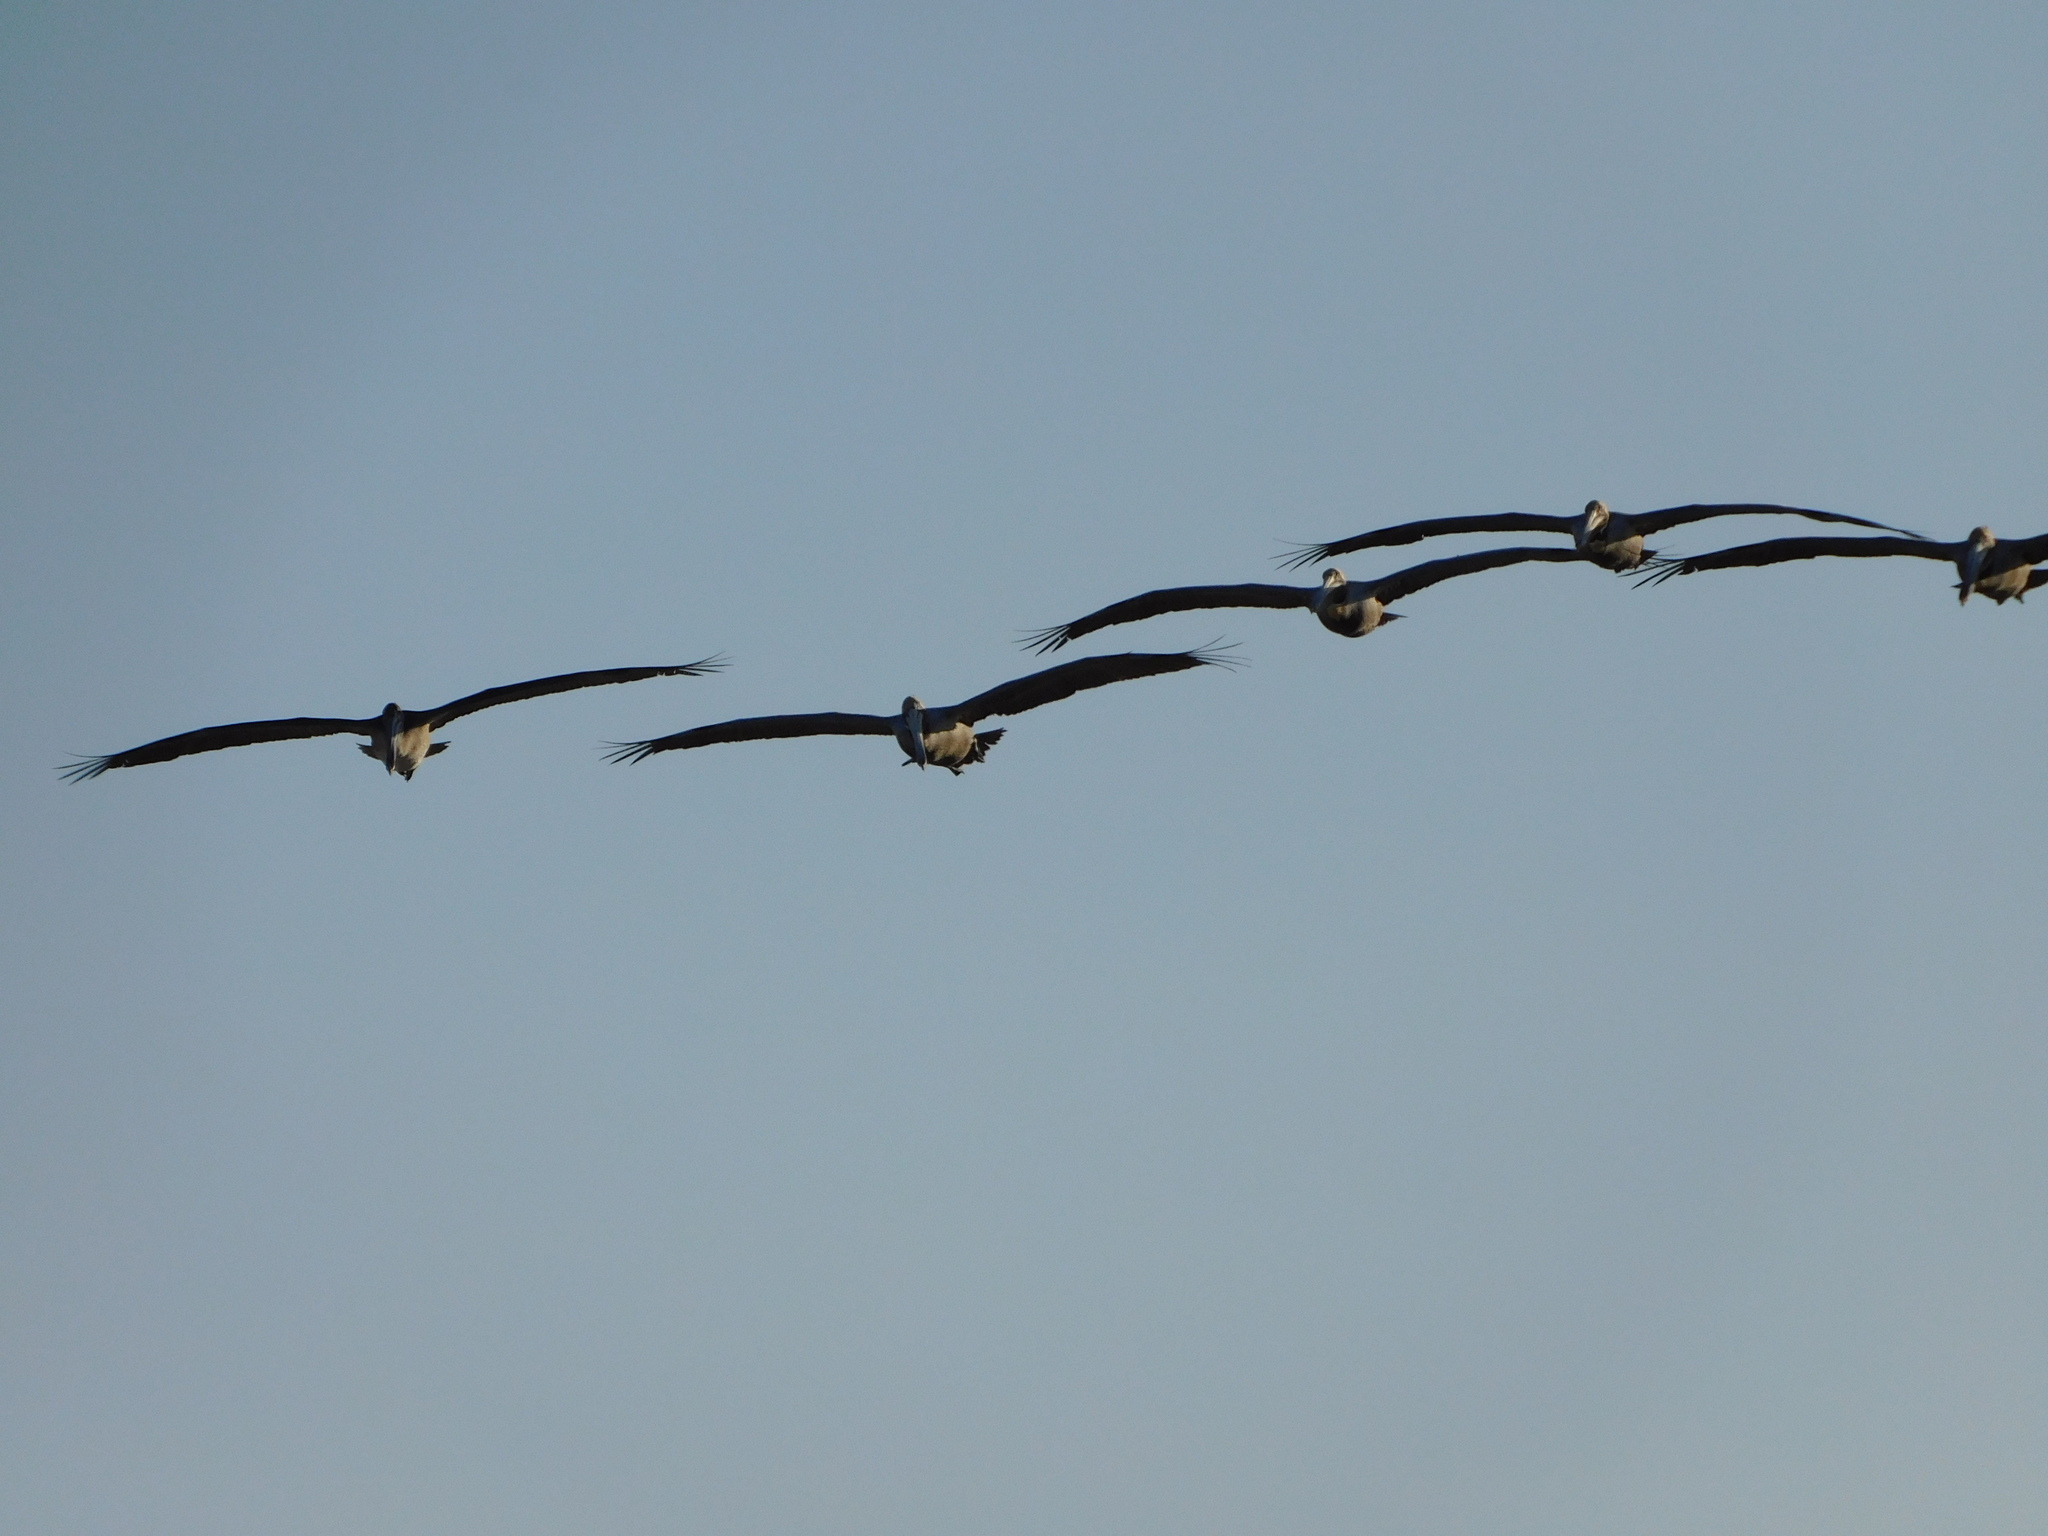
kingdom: Animalia
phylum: Chordata
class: Aves
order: Pelecaniformes
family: Pelecanidae
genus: Pelecanus
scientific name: Pelecanus occidentalis
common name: Brown pelican
